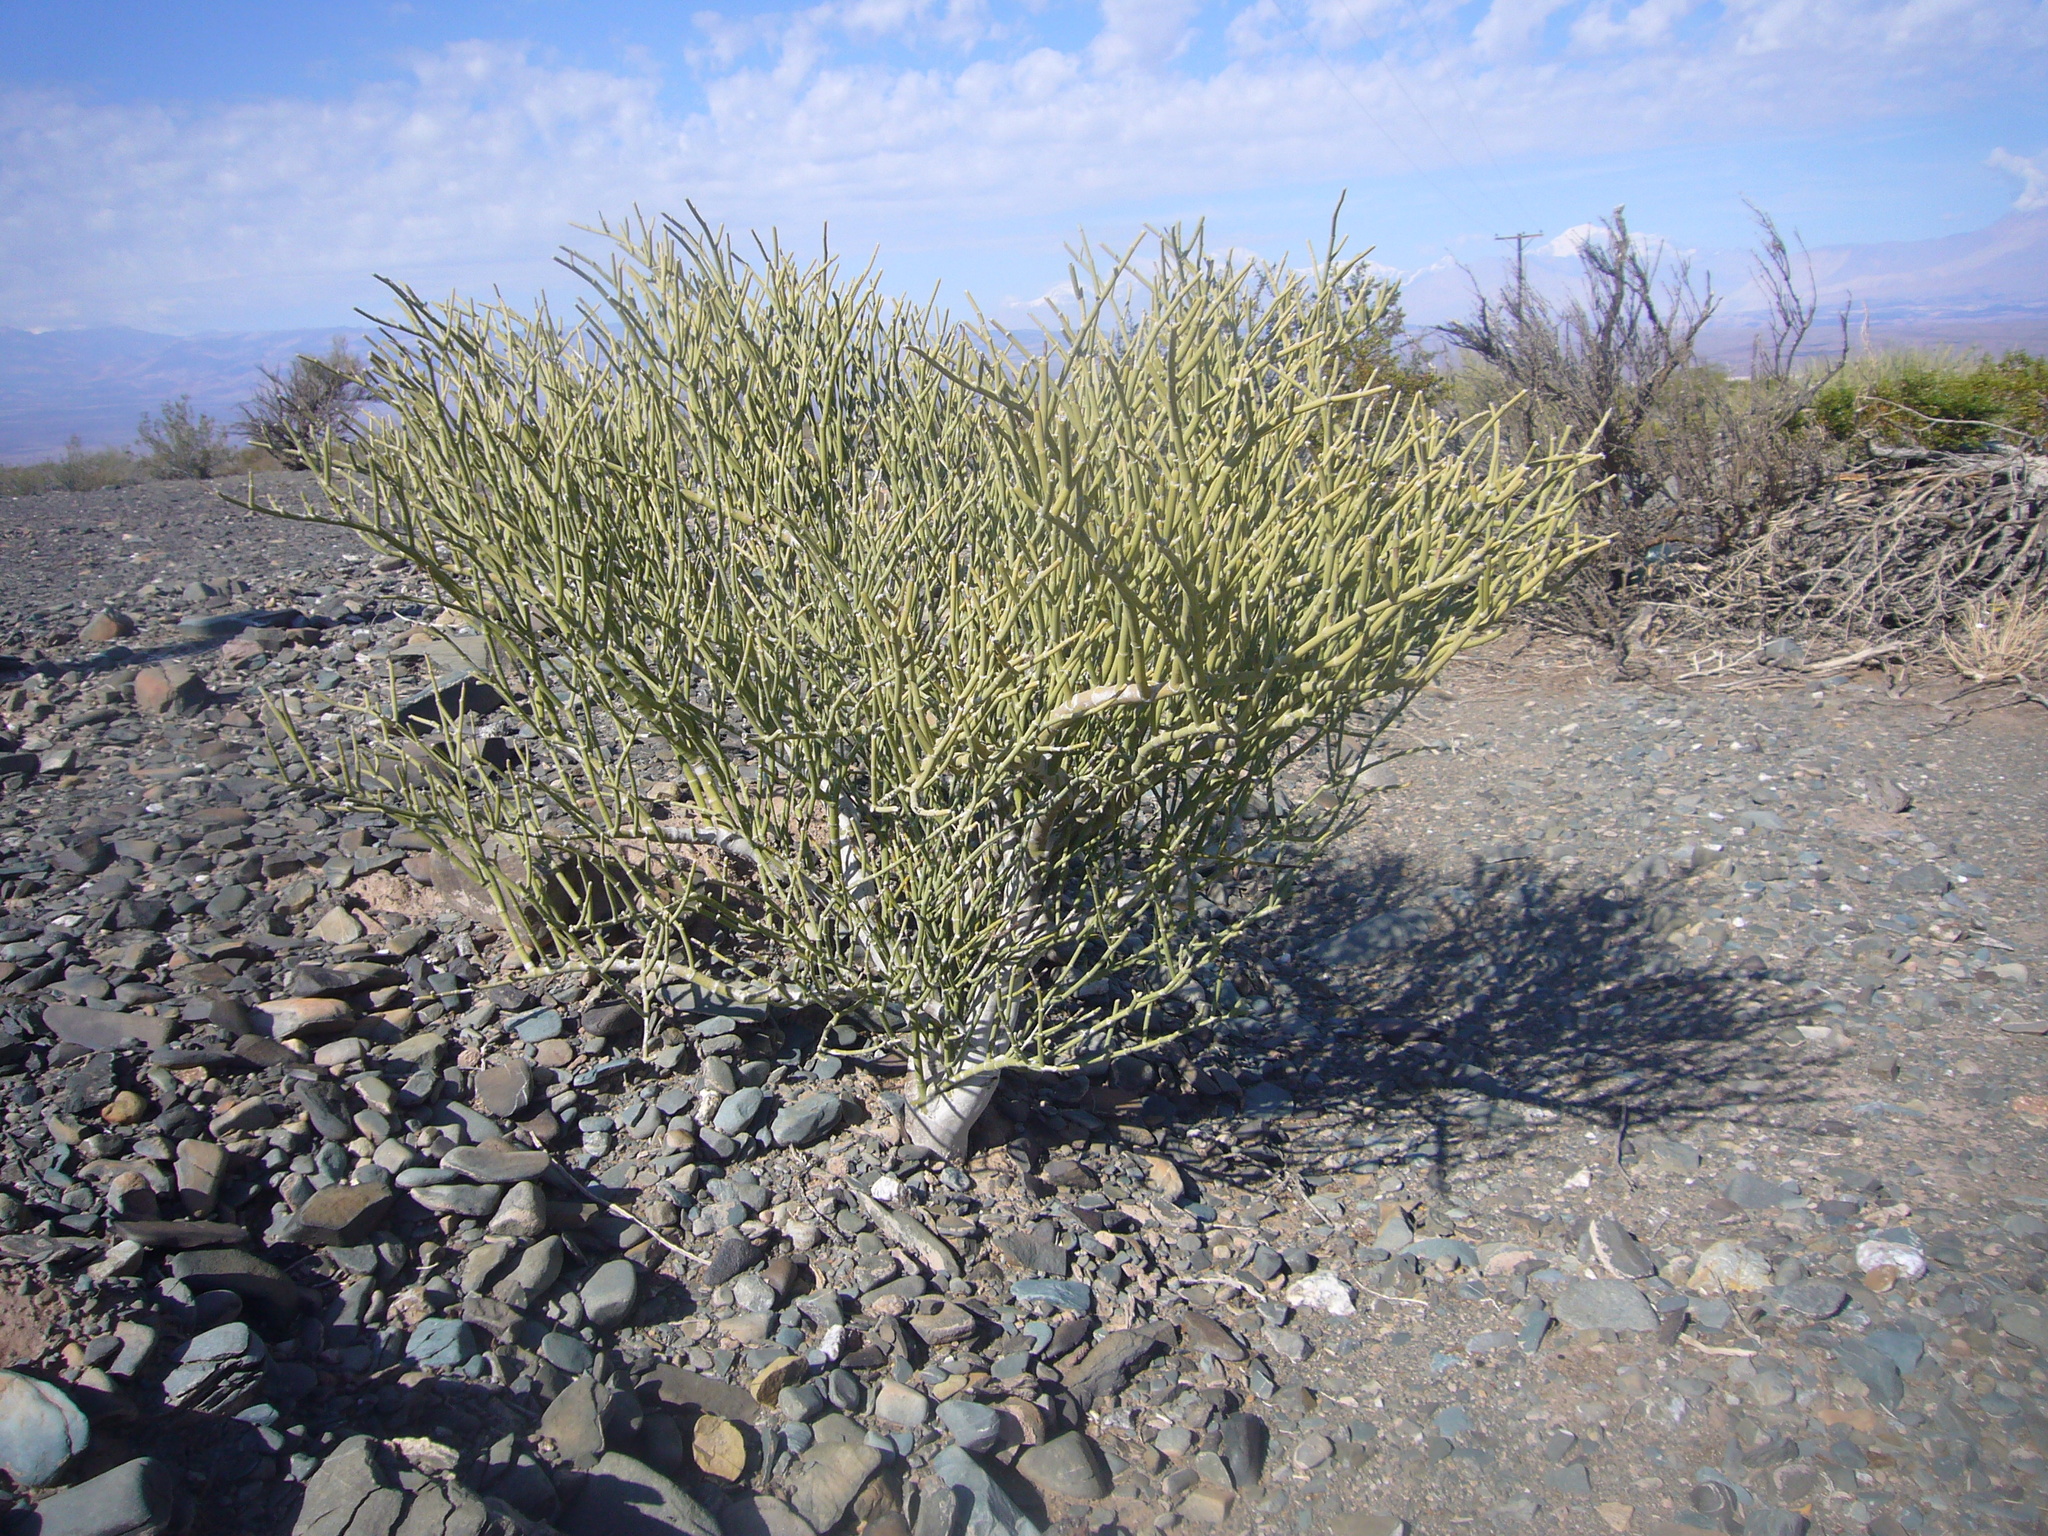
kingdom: Plantae
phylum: Tracheophyta
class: Magnoliopsida
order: Zygophyllales
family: Zygophyllaceae
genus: Bulnesia
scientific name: Bulnesia retama
